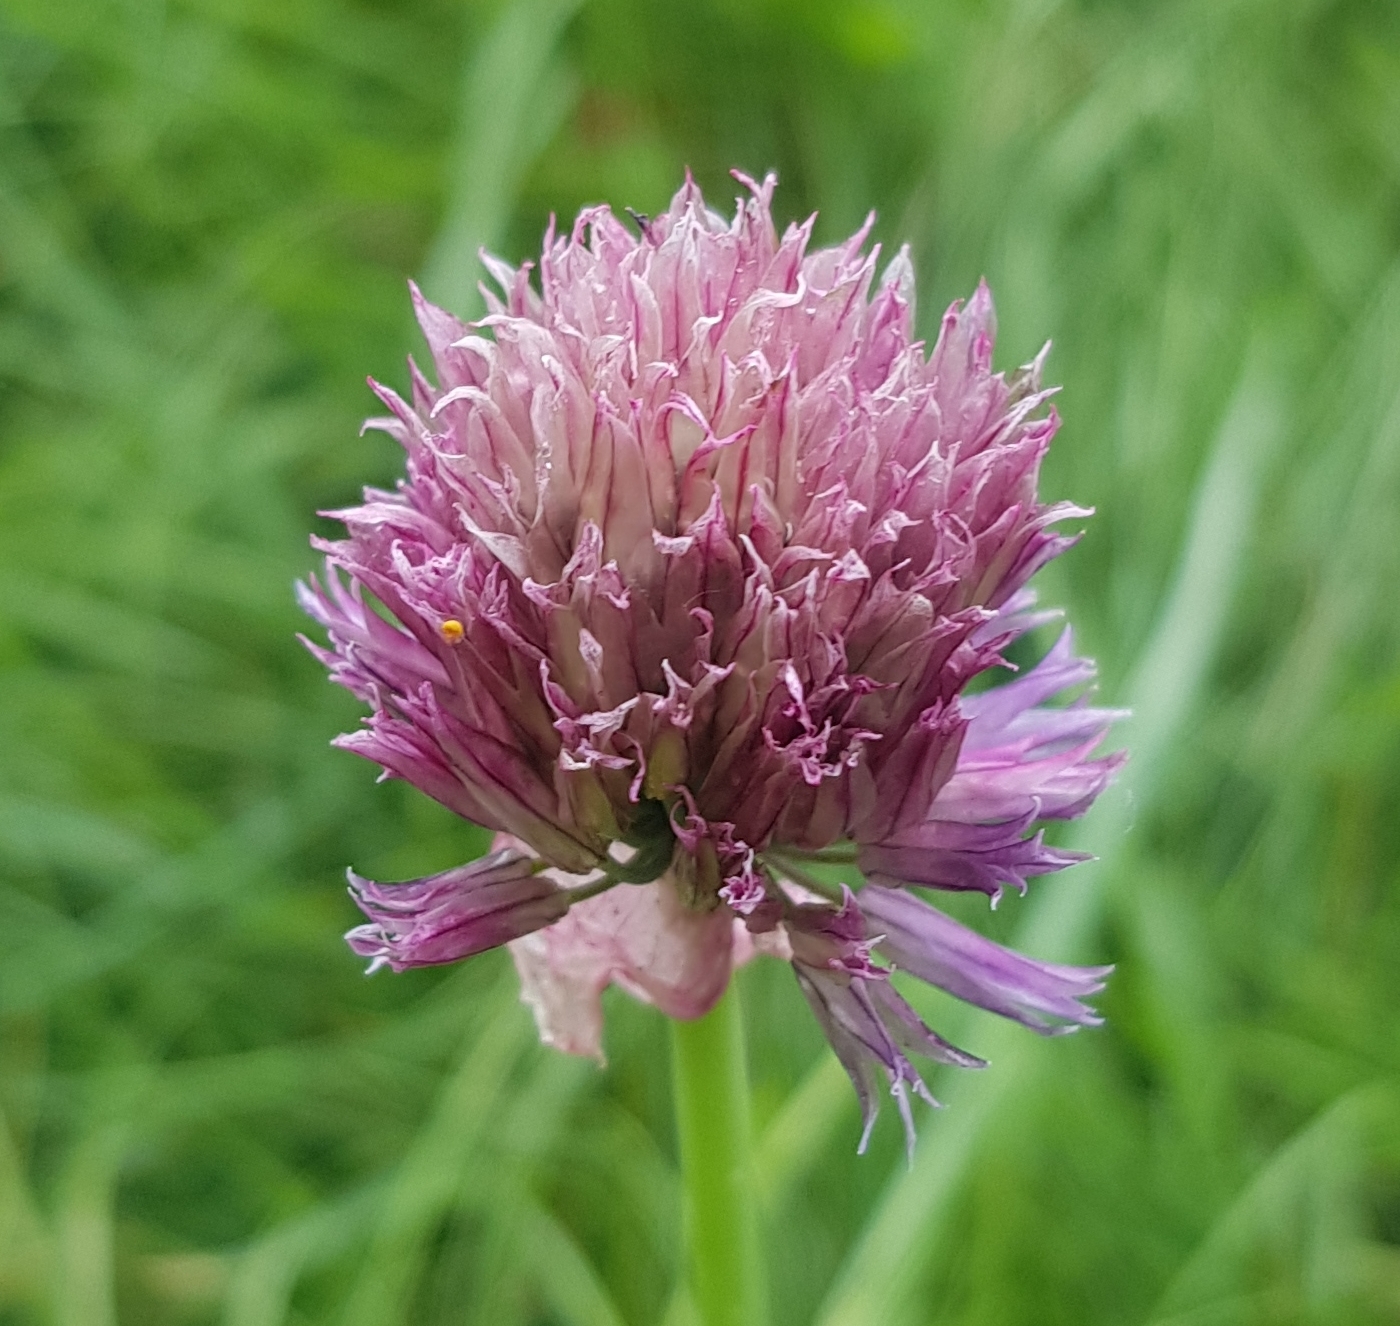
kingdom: Plantae
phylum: Tracheophyta
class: Liliopsida
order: Asparagales
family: Amaryllidaceae
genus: Allium
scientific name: Allium schoenoprasum
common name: Chives
